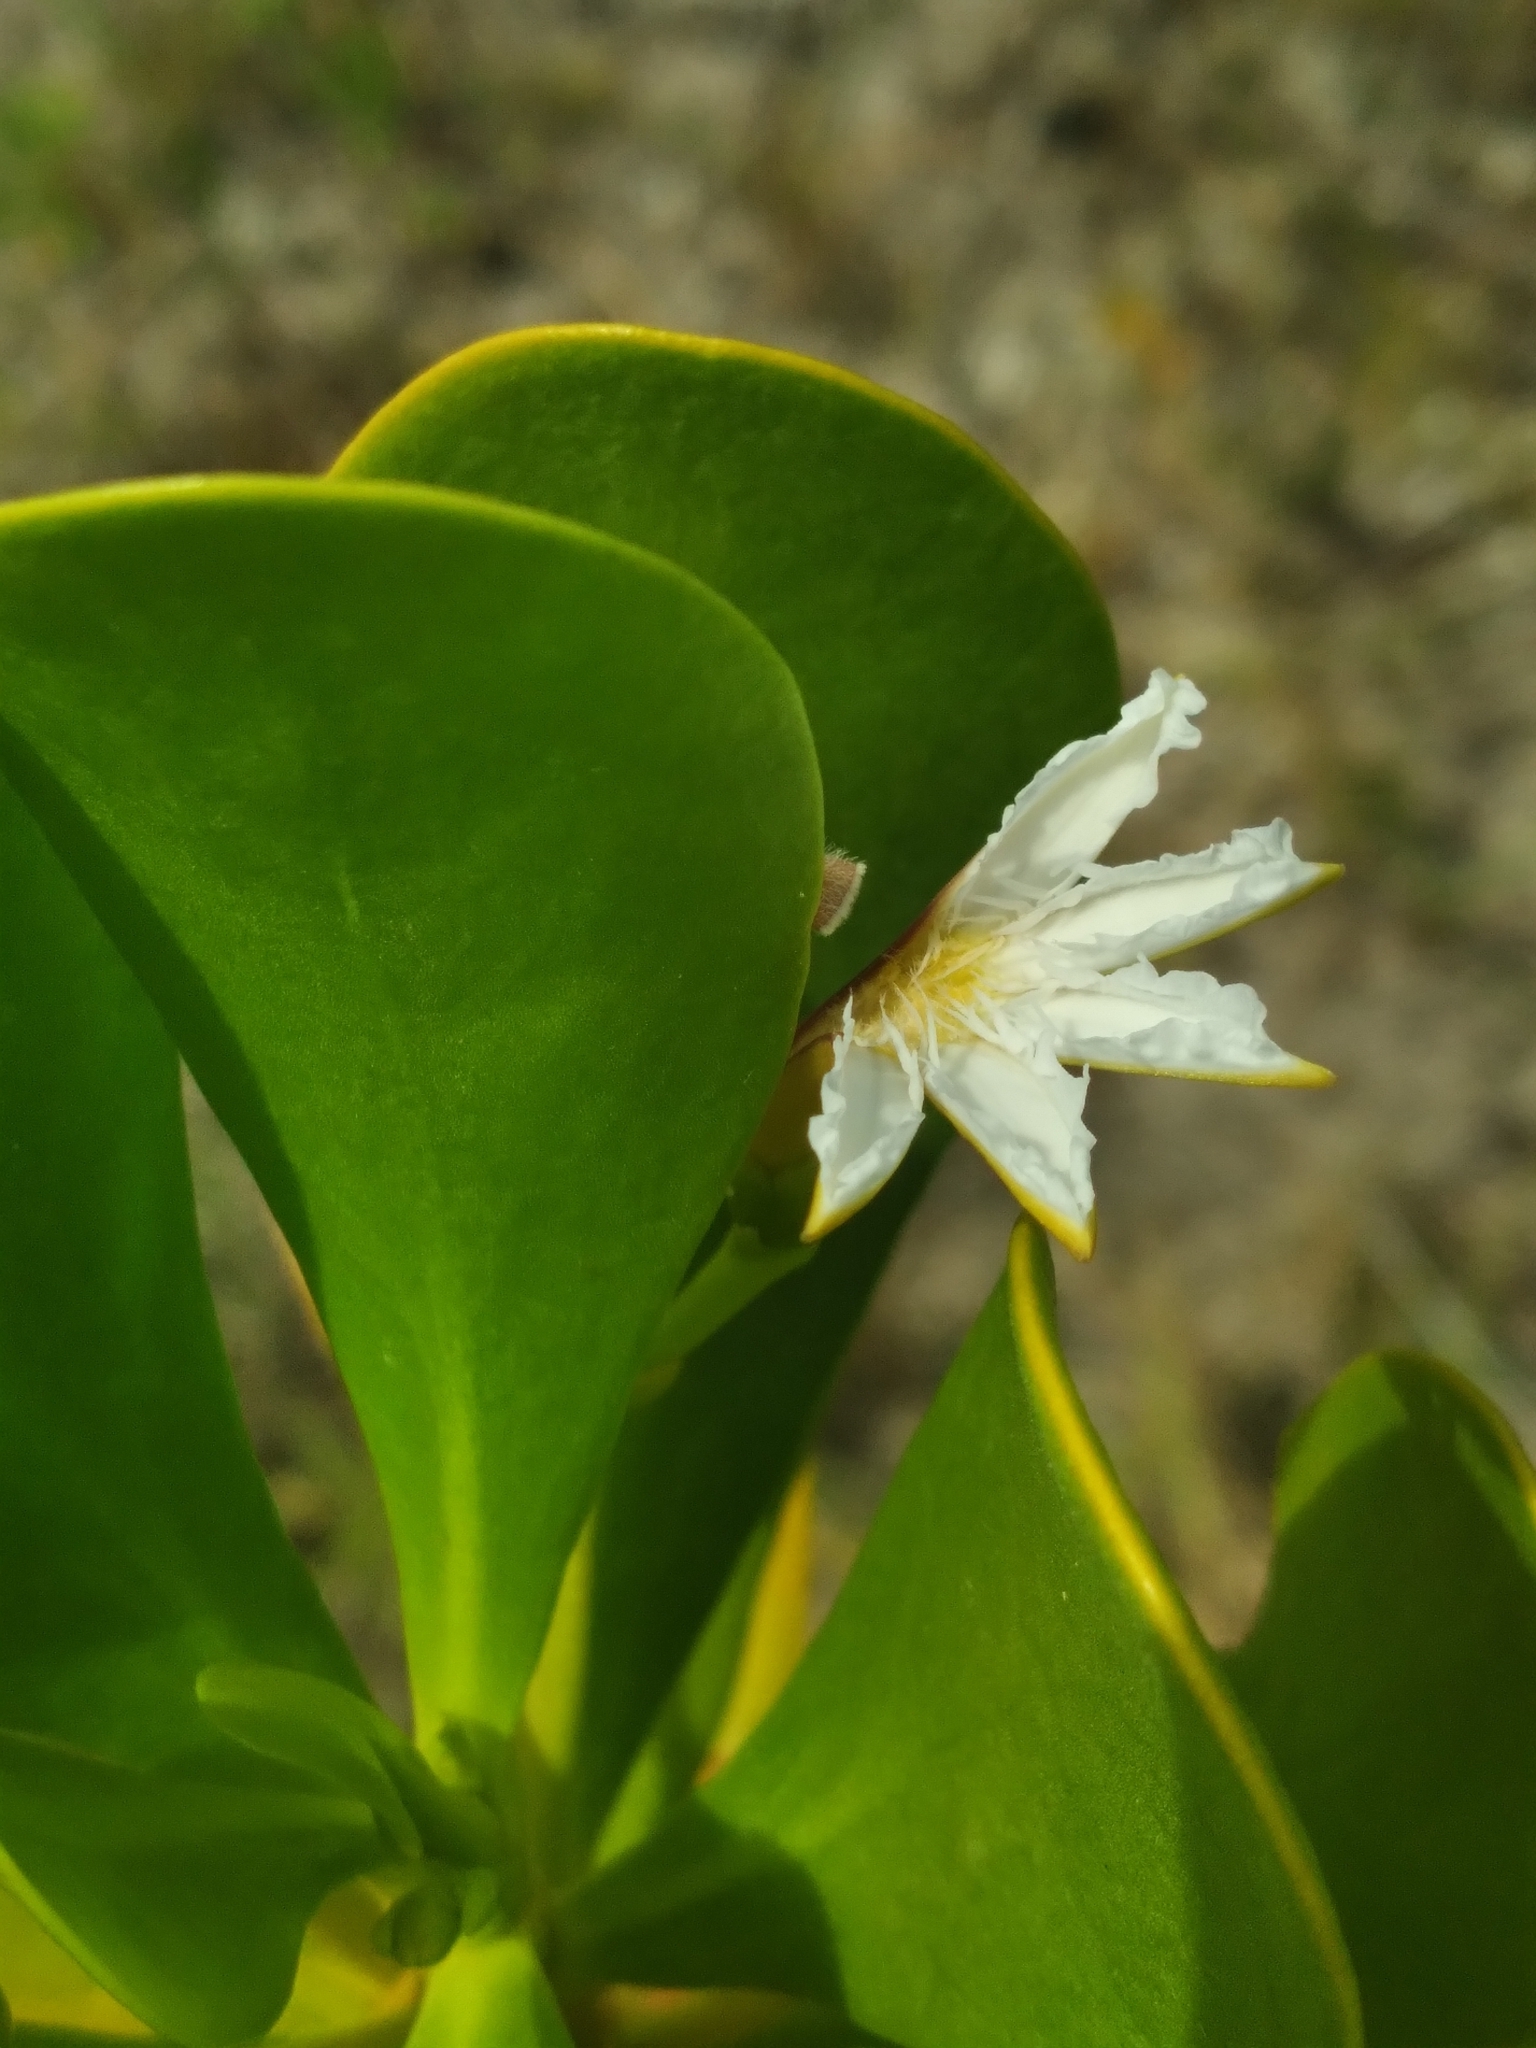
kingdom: Plantae
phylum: Tracheophyta
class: Magnoliopsida
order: Asterales
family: Goodeniaceae
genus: Scaevola
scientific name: Scaevola plumieri
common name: Gull feed
